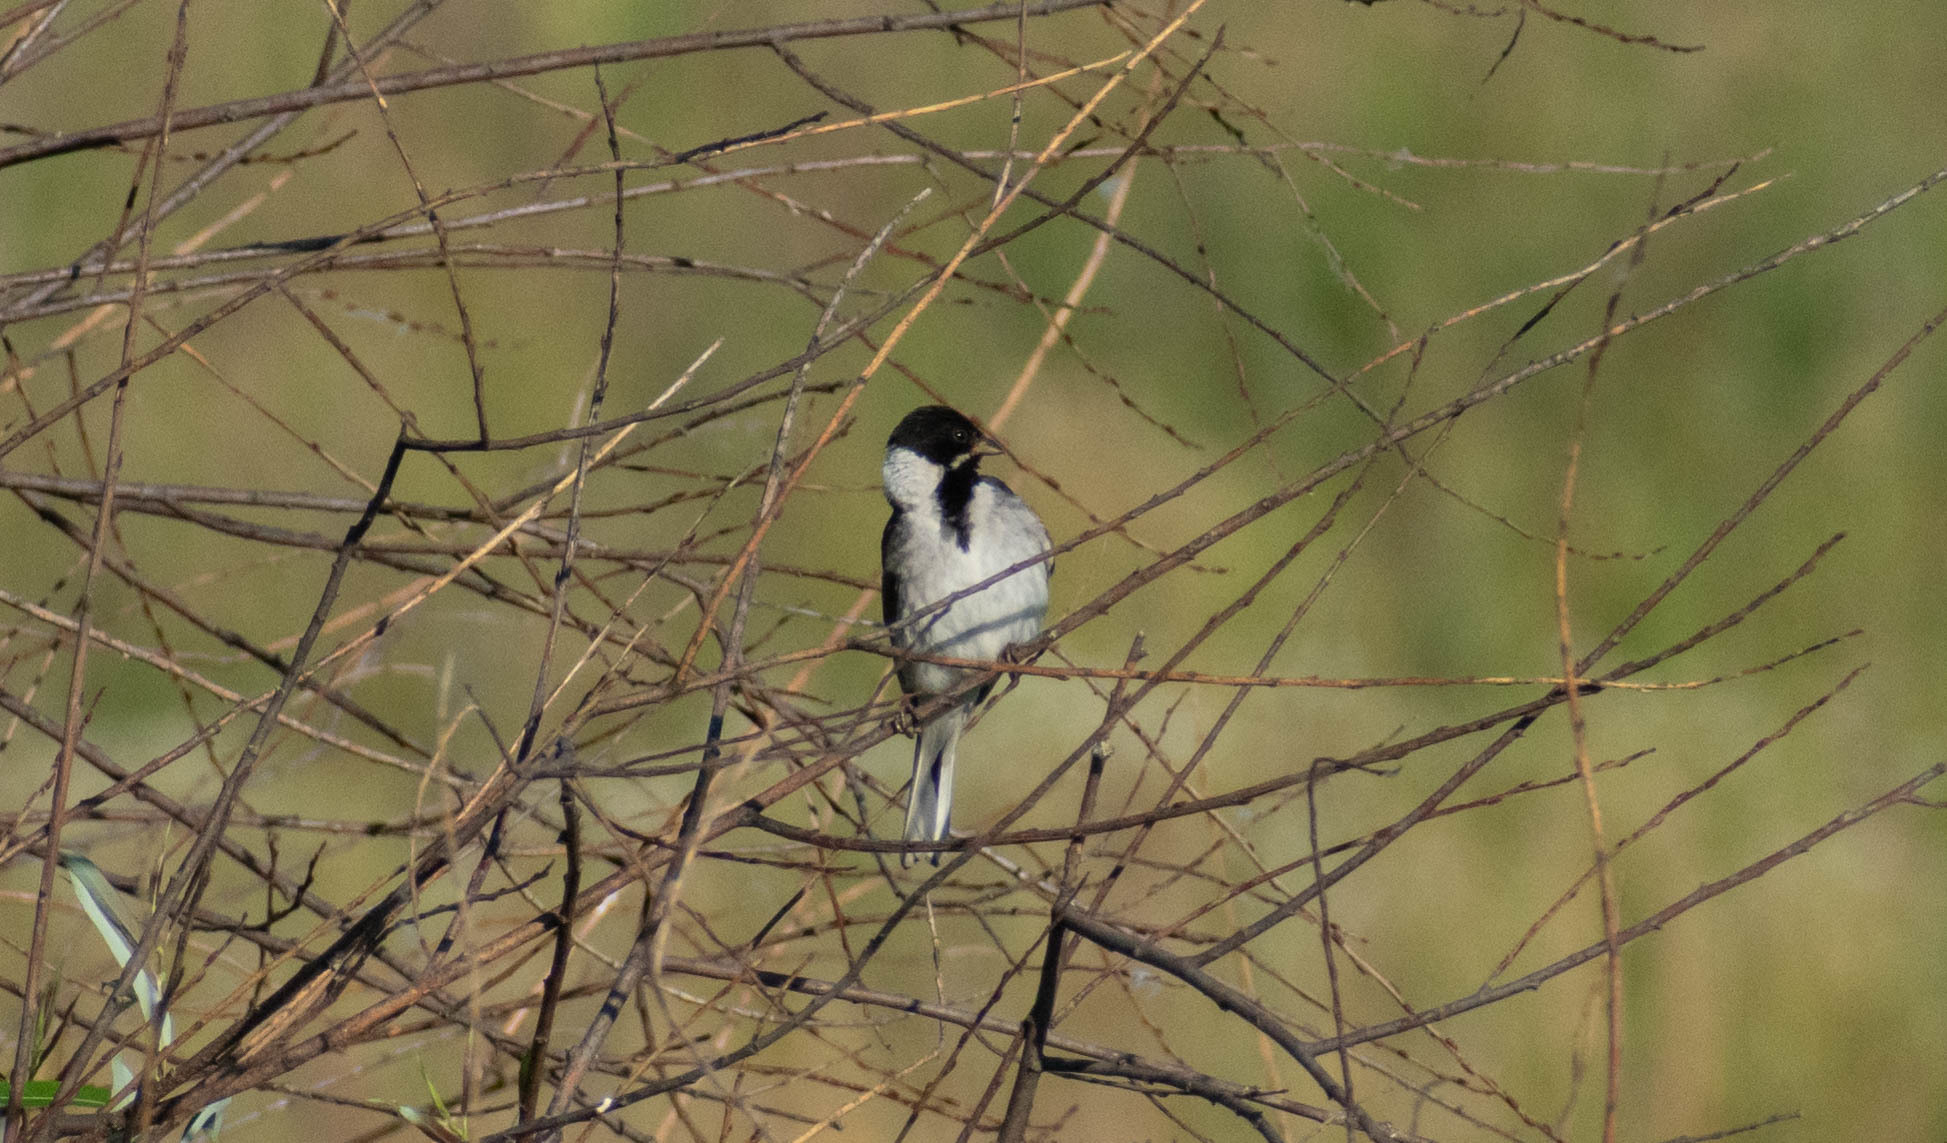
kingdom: Animalia
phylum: Chordata
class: Aves
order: Passeriformes
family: Emberizidae
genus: Emberiza
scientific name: Emberiza schoeniclus
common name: Reed bunting
